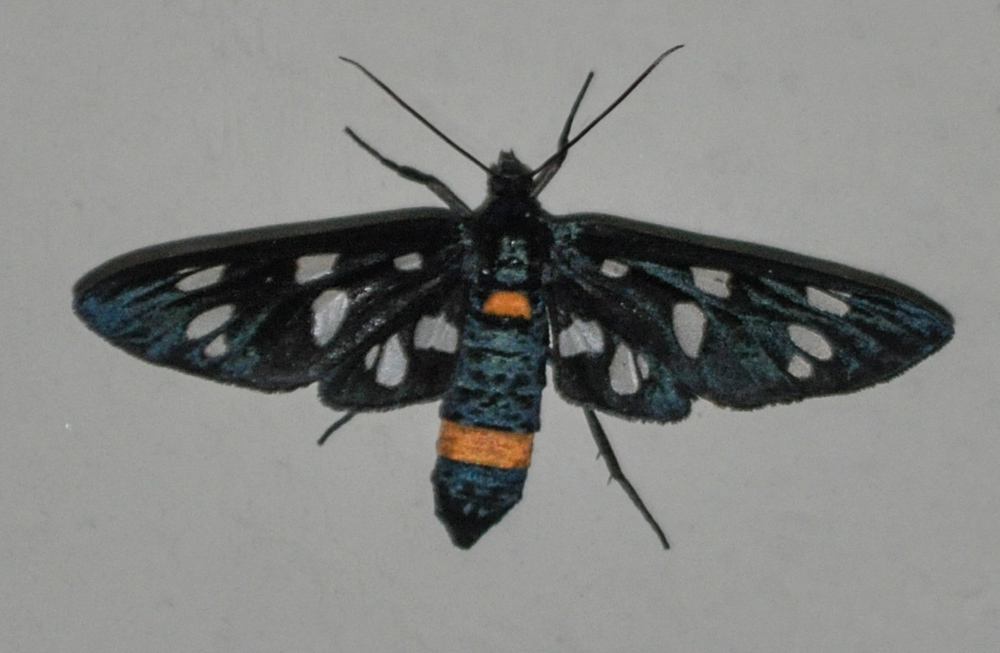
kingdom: Animalia
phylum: Arthropoda
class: Insecta
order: Lepidoptera
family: Erebidae
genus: Amata
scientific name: Amata phegea
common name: Nine-spotted
